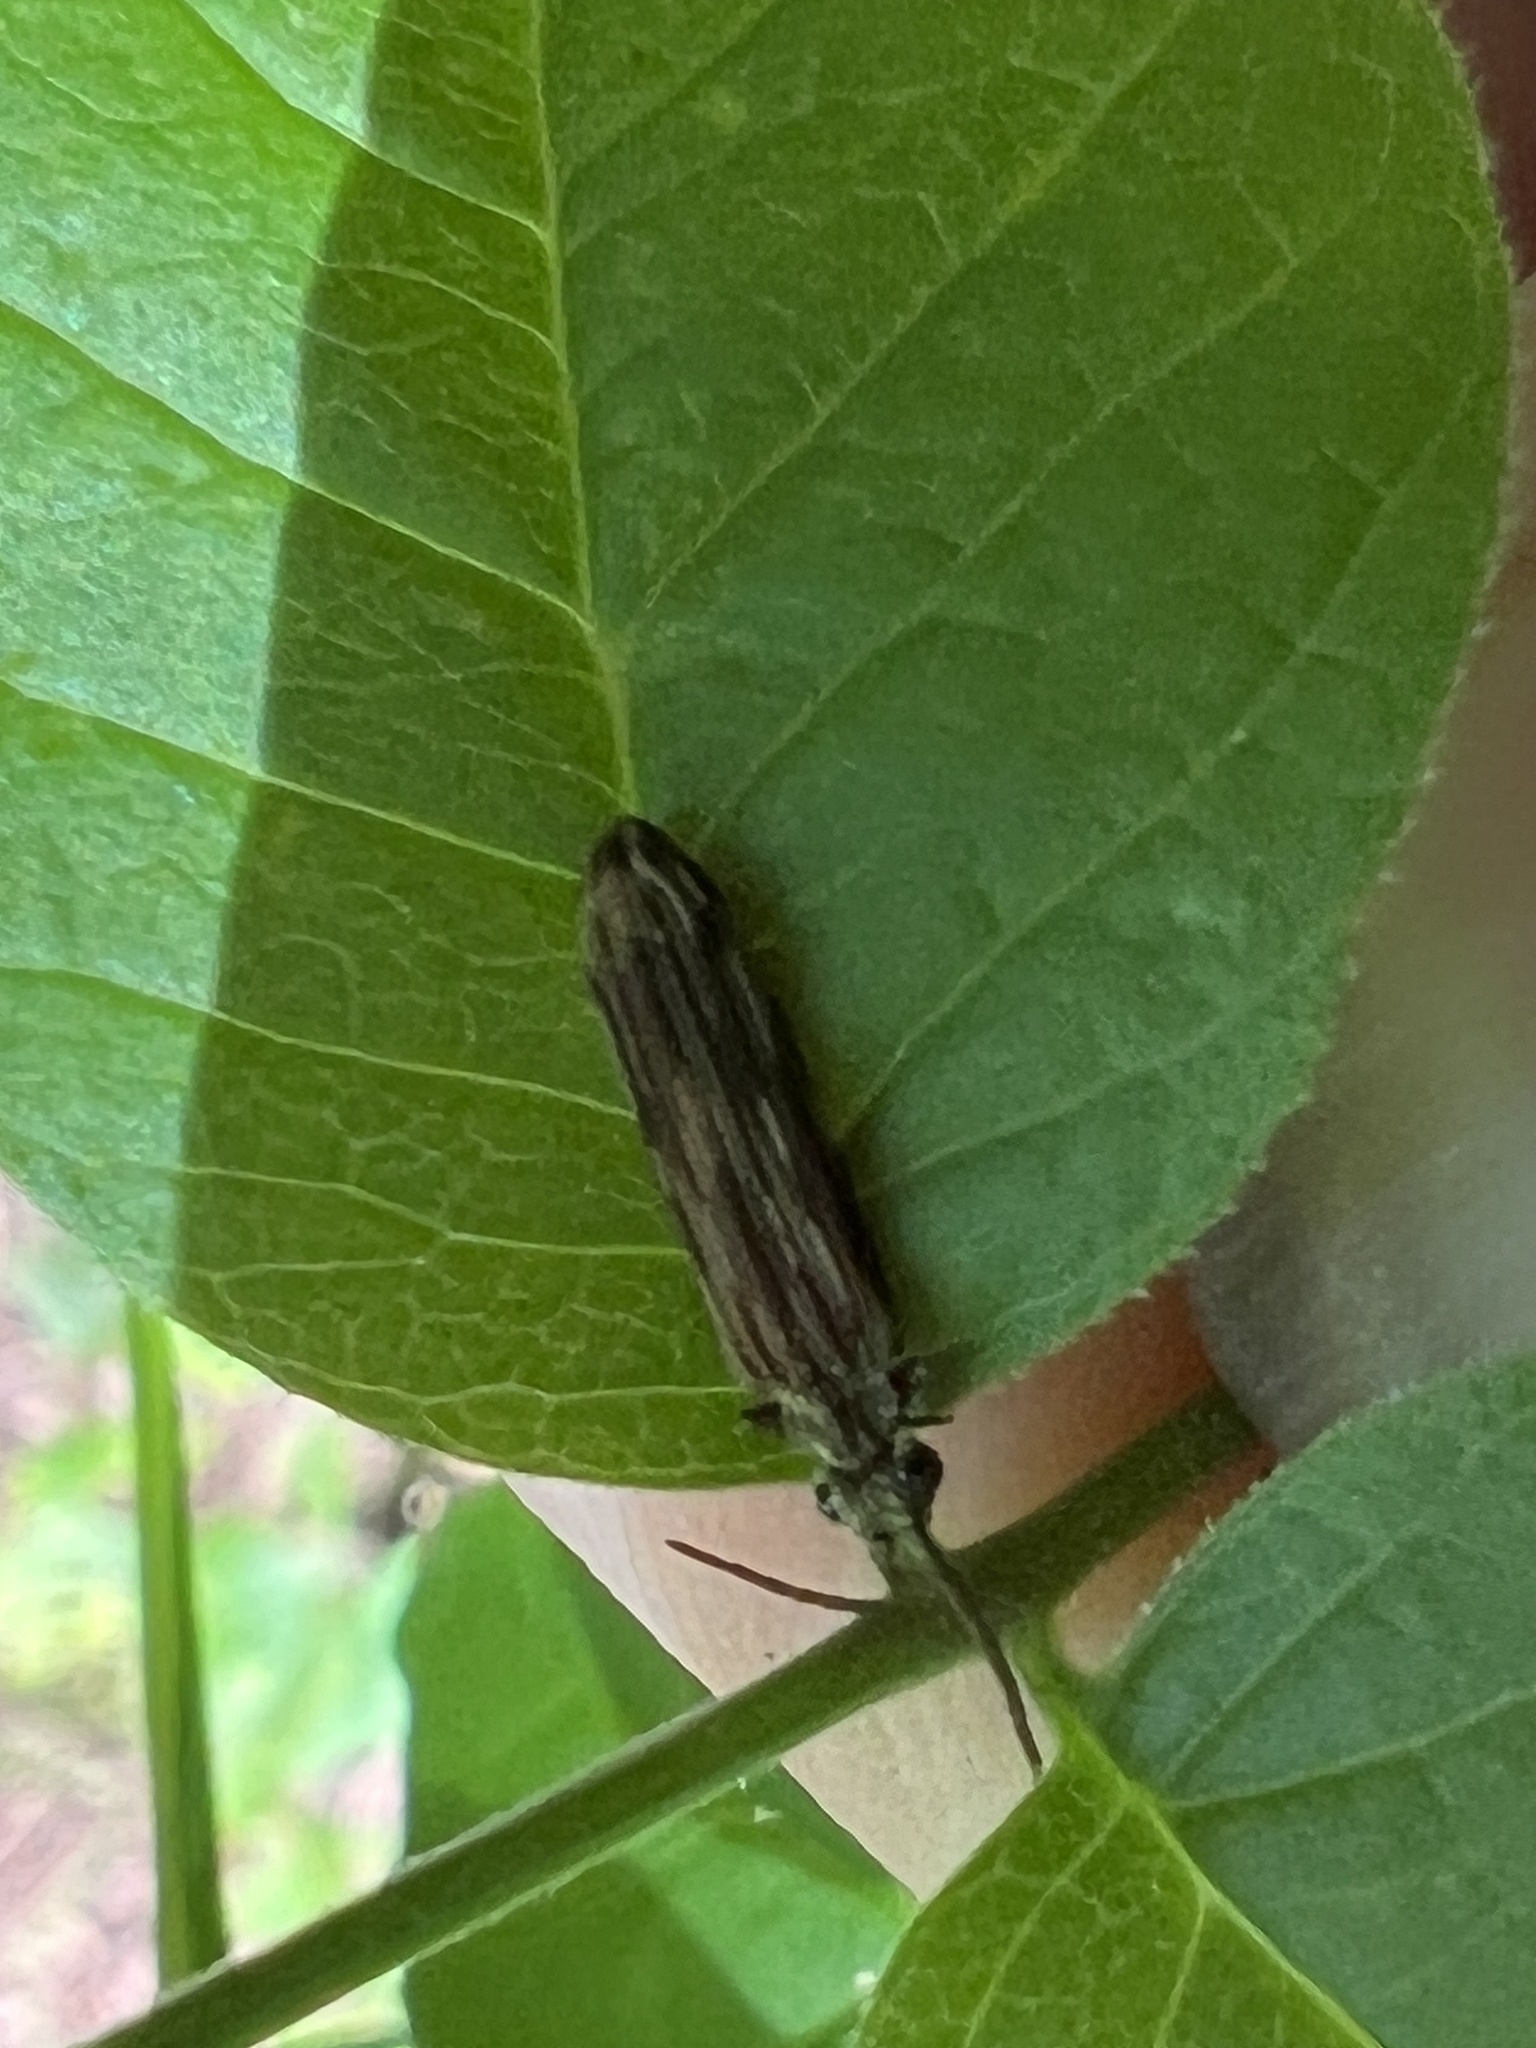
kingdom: Animalia
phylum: Arthropoda
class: Insecta
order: Coleoptera
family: Cupedidae
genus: Tenomerga
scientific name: Tenomerga cinerea
